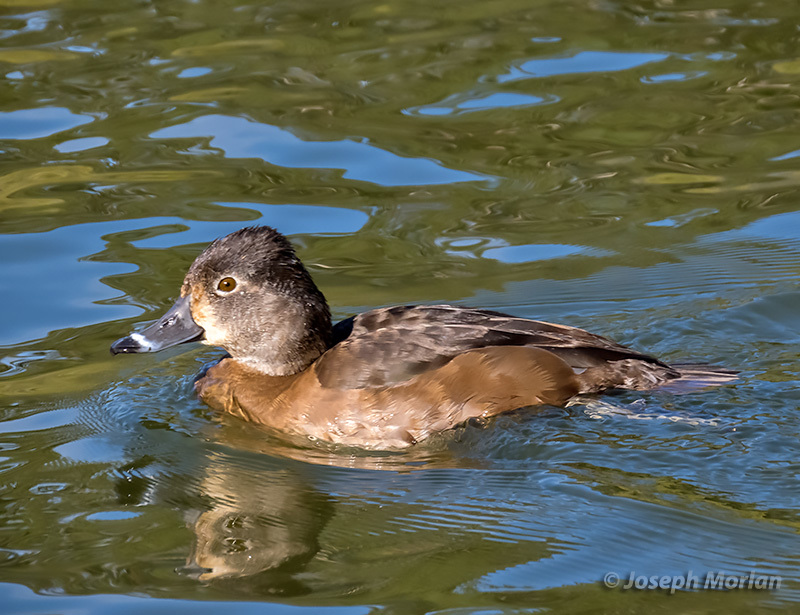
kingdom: Animalia
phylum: Chordata
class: Aves
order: Anseriformes
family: Anatidae
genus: Aythya
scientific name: Aythya collaris
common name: Ring-necked duck
